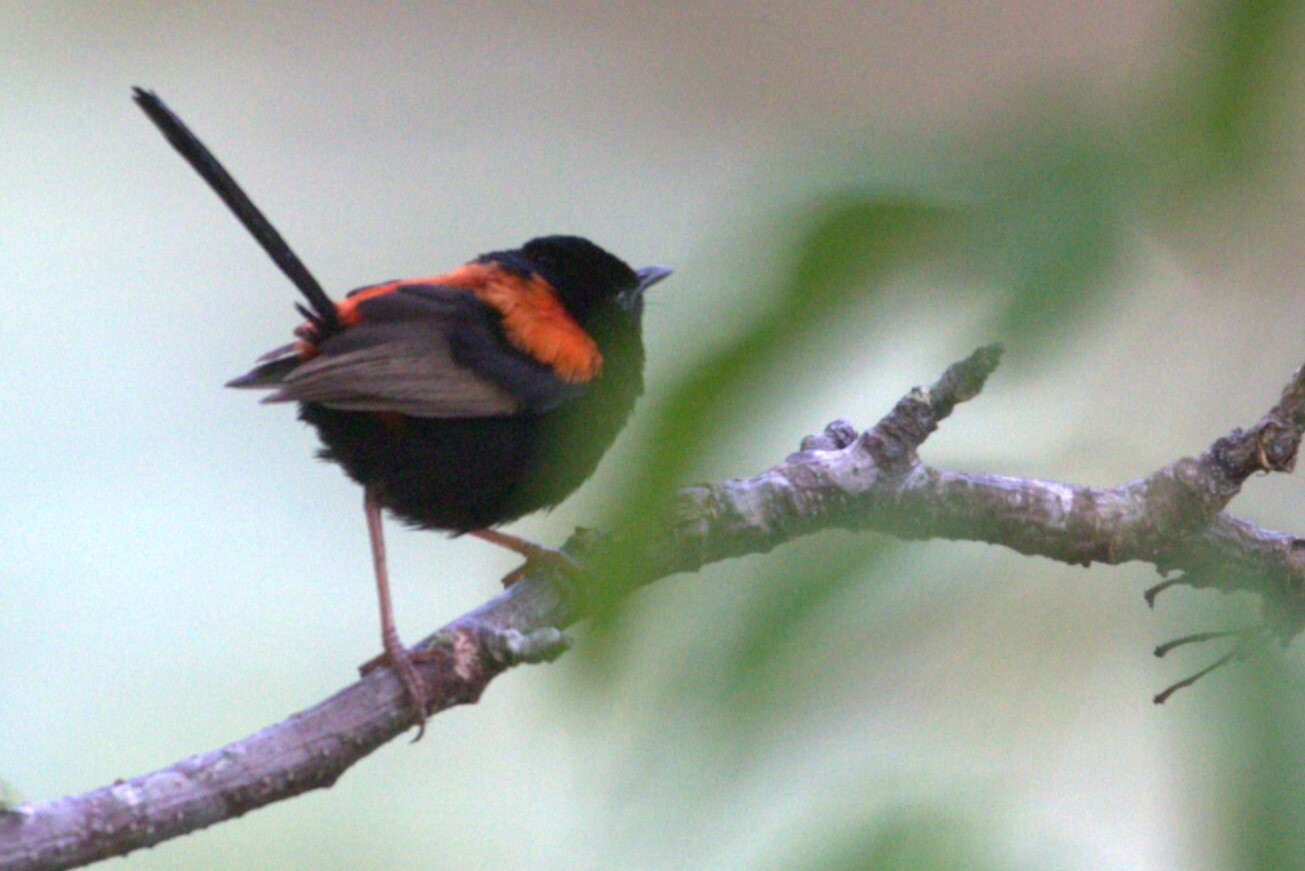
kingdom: Animalia
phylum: Chordata
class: Aves
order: Passeriformes
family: Maluridae
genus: Malurus
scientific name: Malurus melanocephalus
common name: Red-backed fairywren
